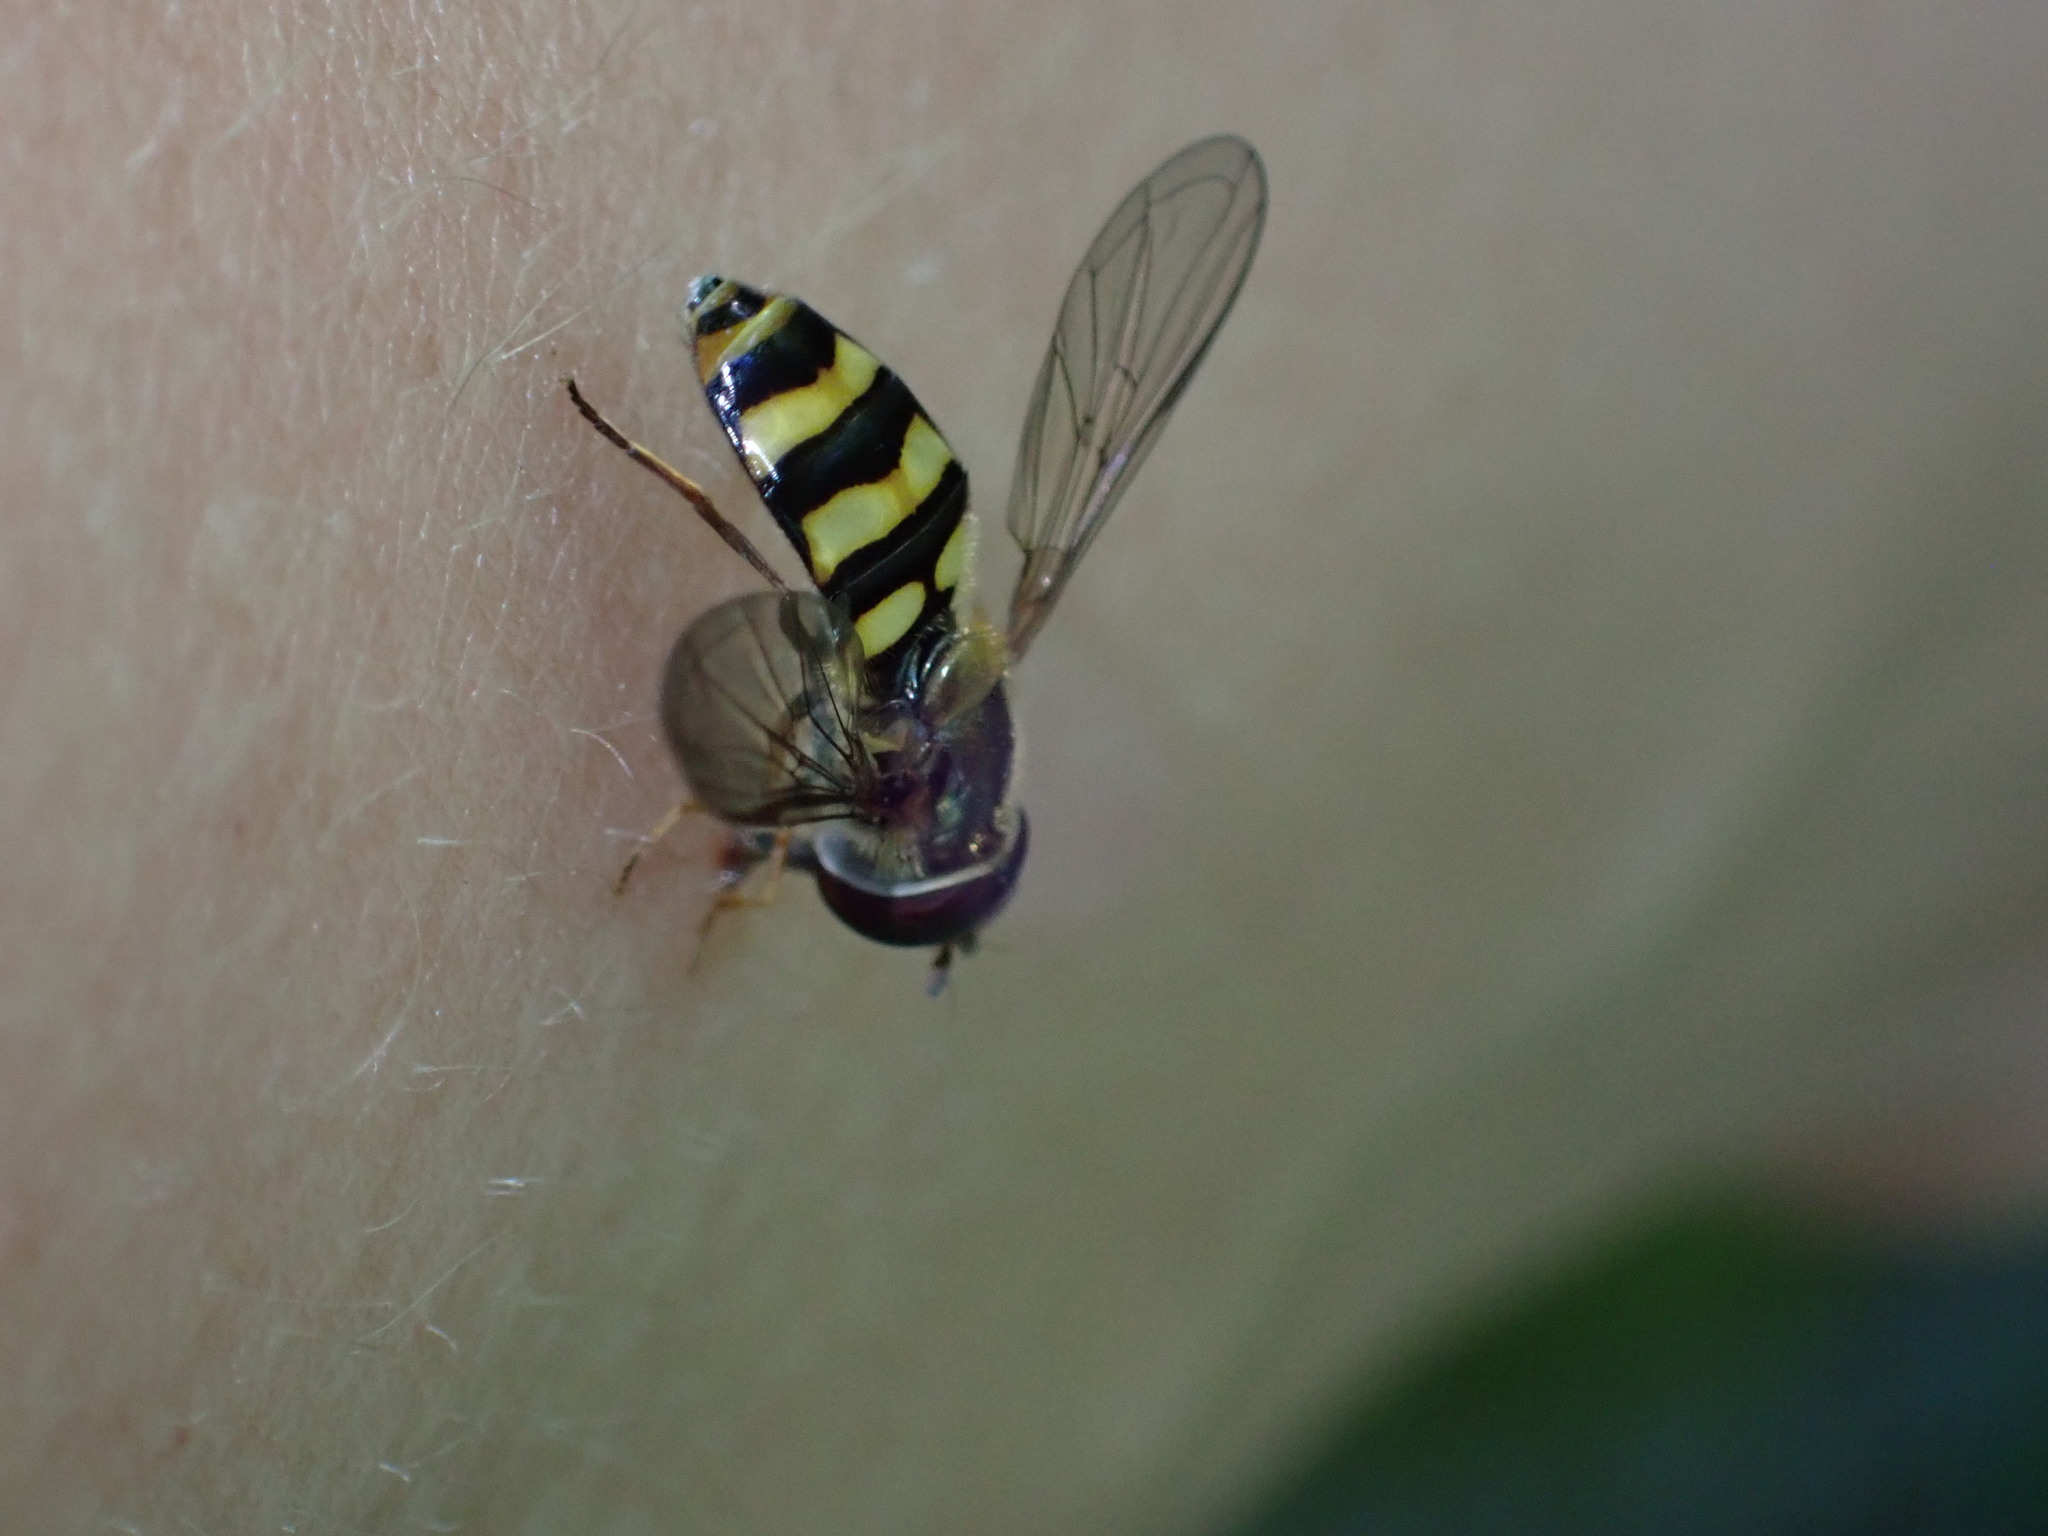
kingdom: Animalia
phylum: Arthropoda
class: Insecta
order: Diptera
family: Syrphidae
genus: Eupeodes
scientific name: Eupeodes
